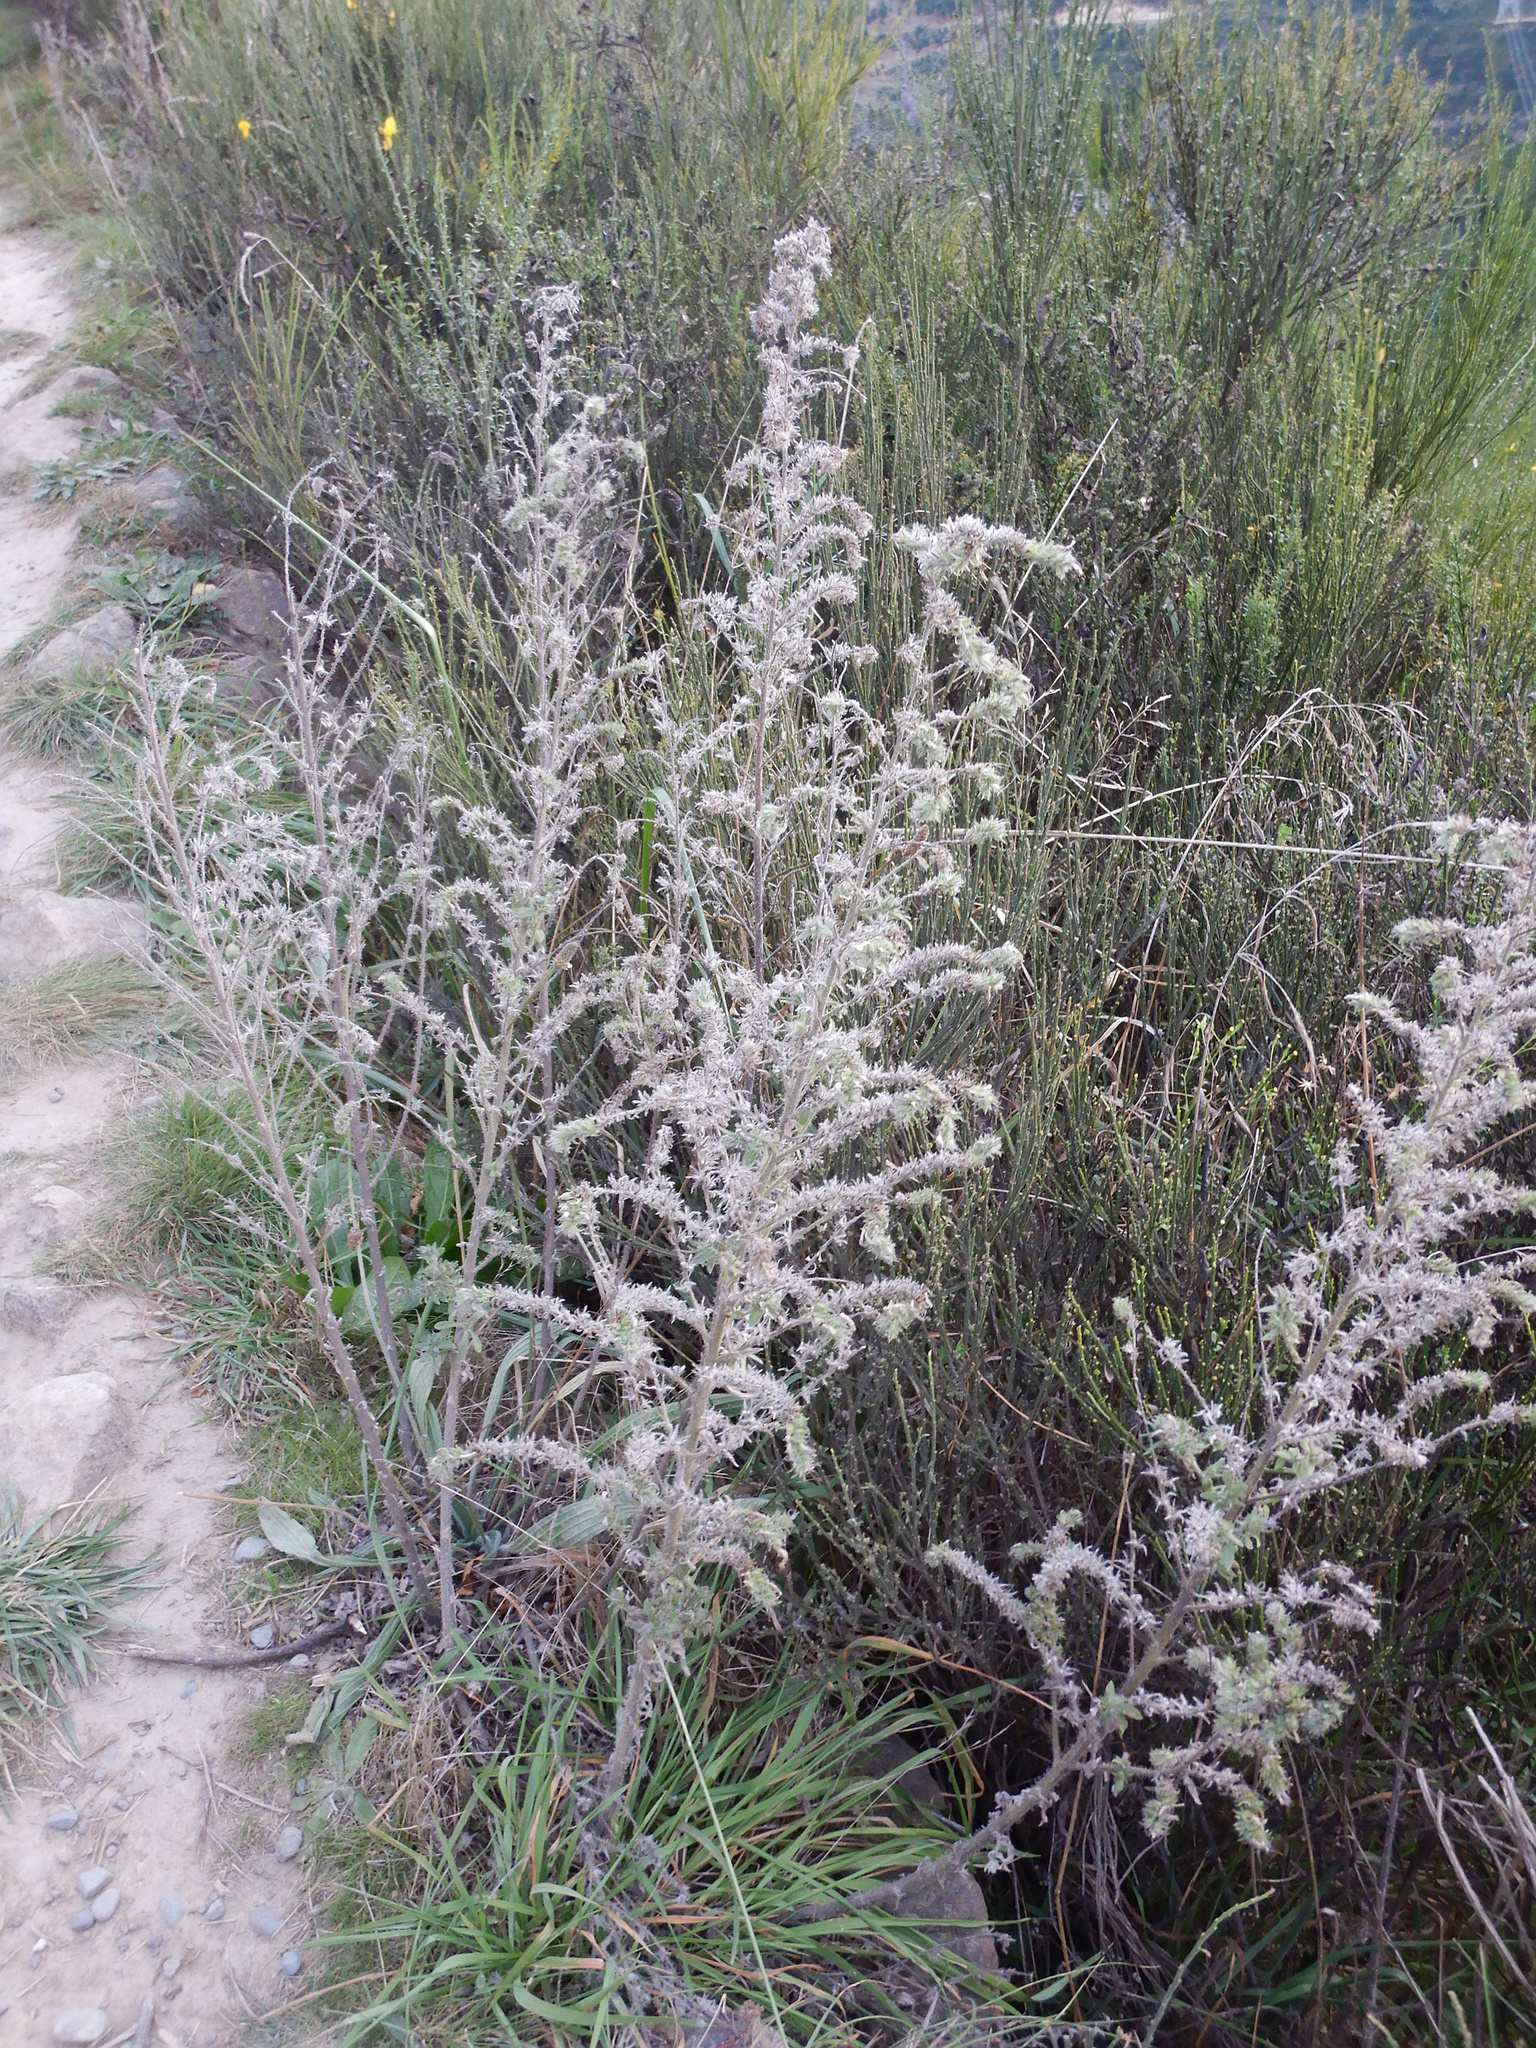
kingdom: Plantae
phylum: Tracheophyta
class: Magnoliopsida
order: Boraginales
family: Boraginaceae
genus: Echium
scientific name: Echium vulgare
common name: Common viper's bugloss
